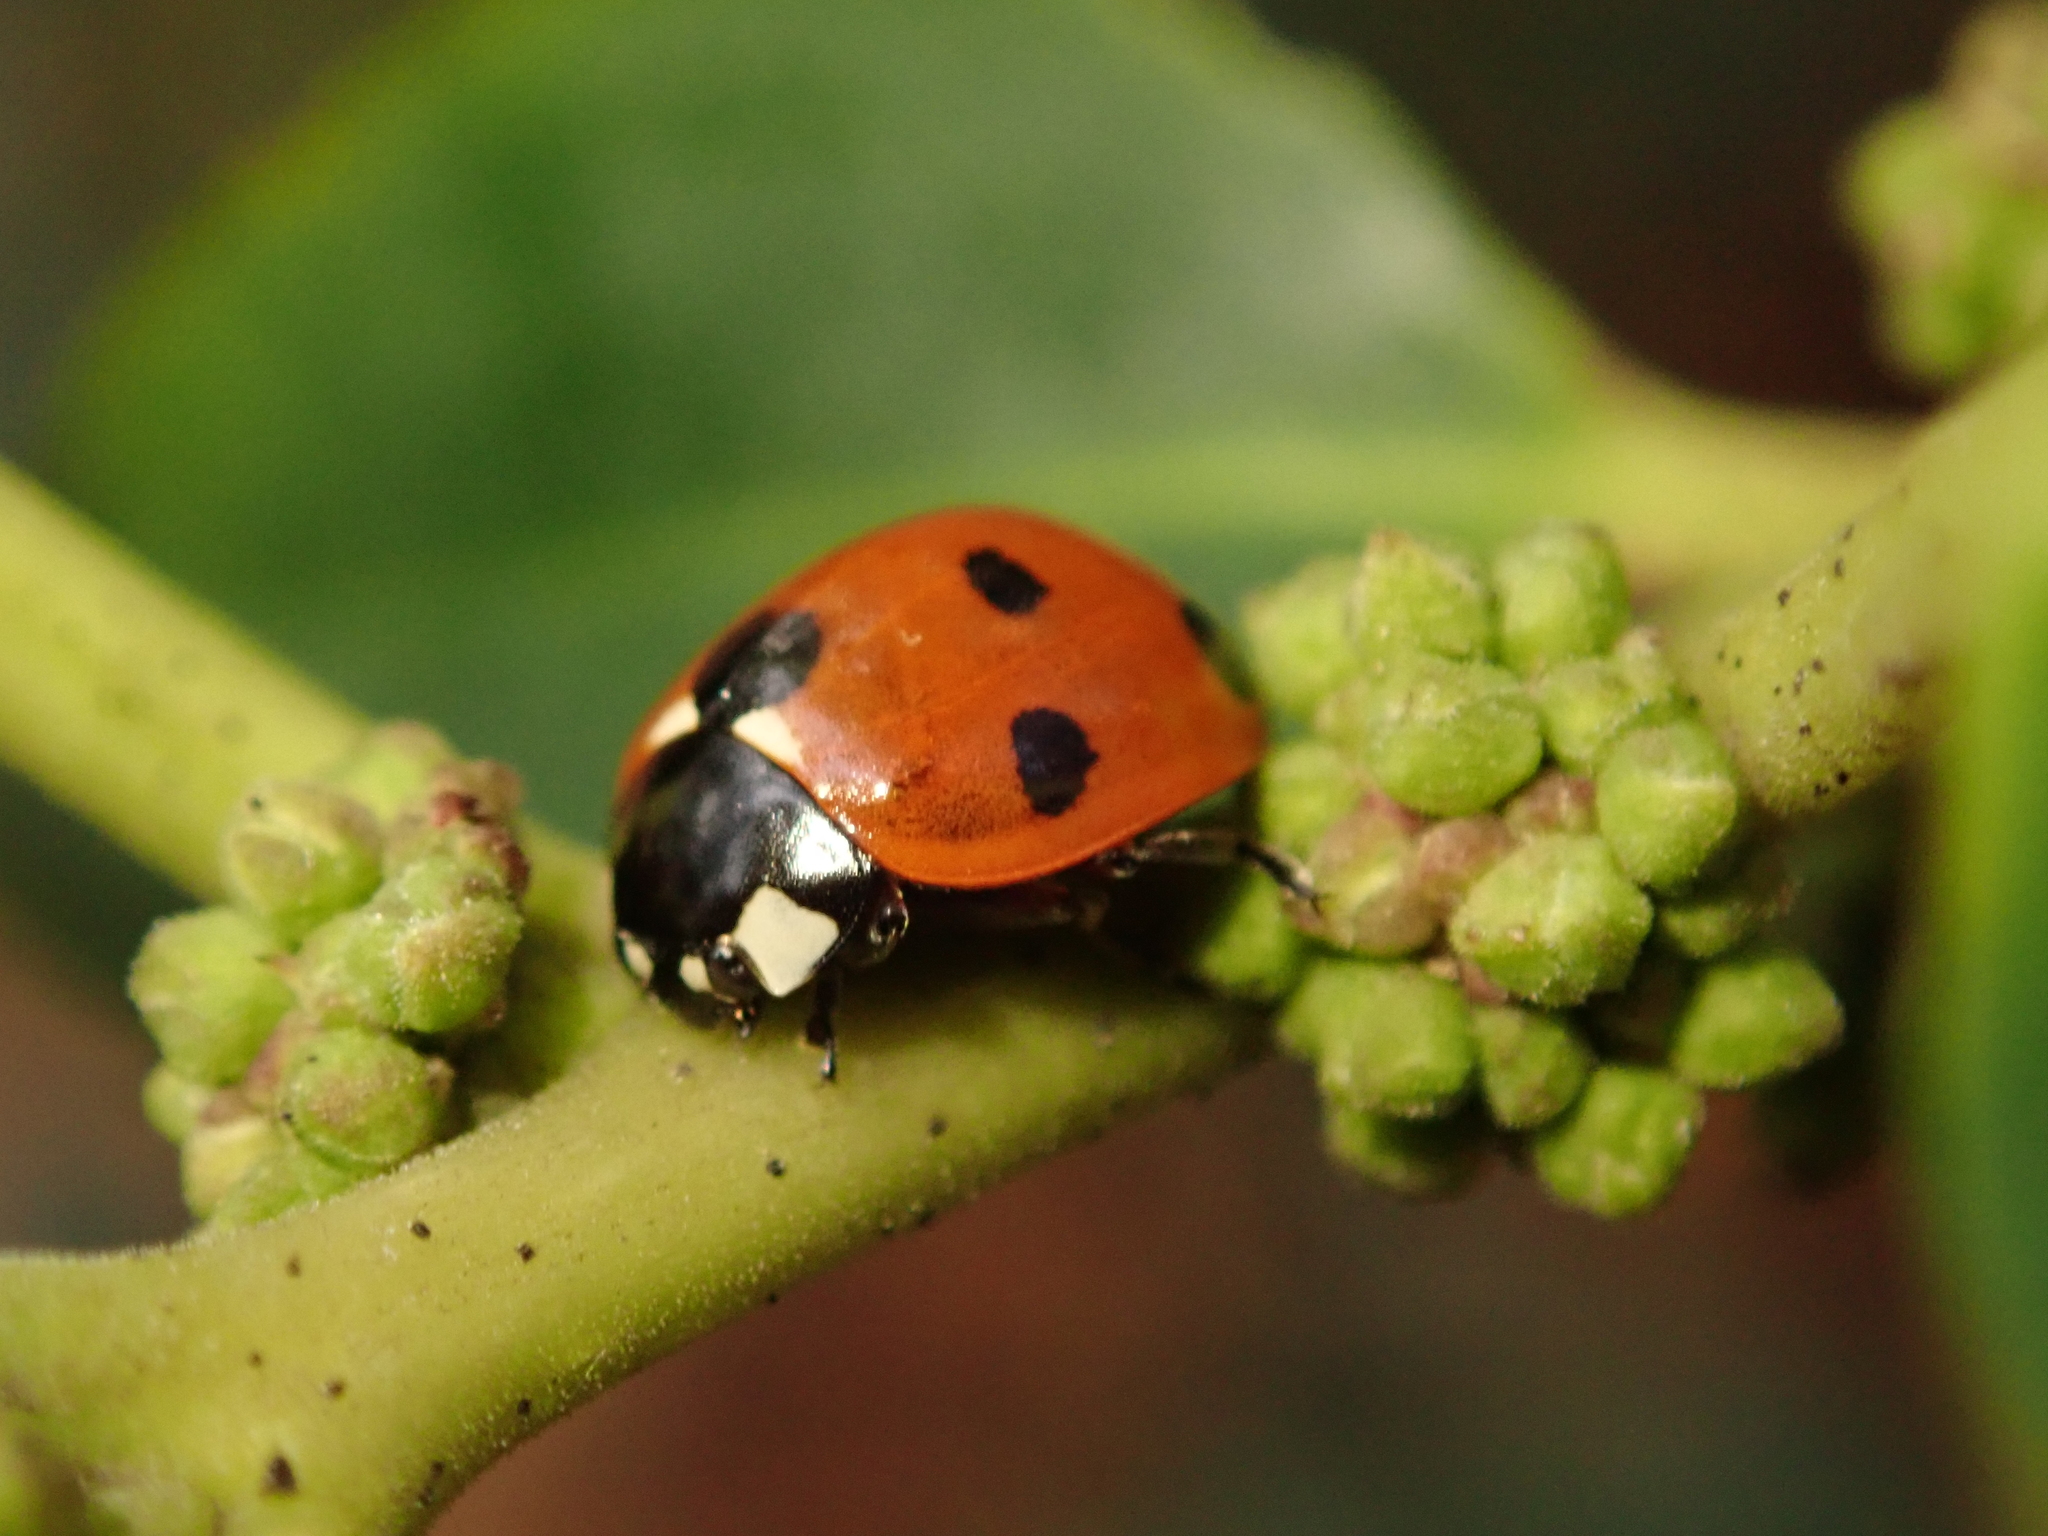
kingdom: Animalia
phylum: Arthropoda
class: Insecta
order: Coleoptera
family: Coccinellidae
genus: Coccinella
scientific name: Coccinella septempunctata
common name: Sevenspotted lady beetle
